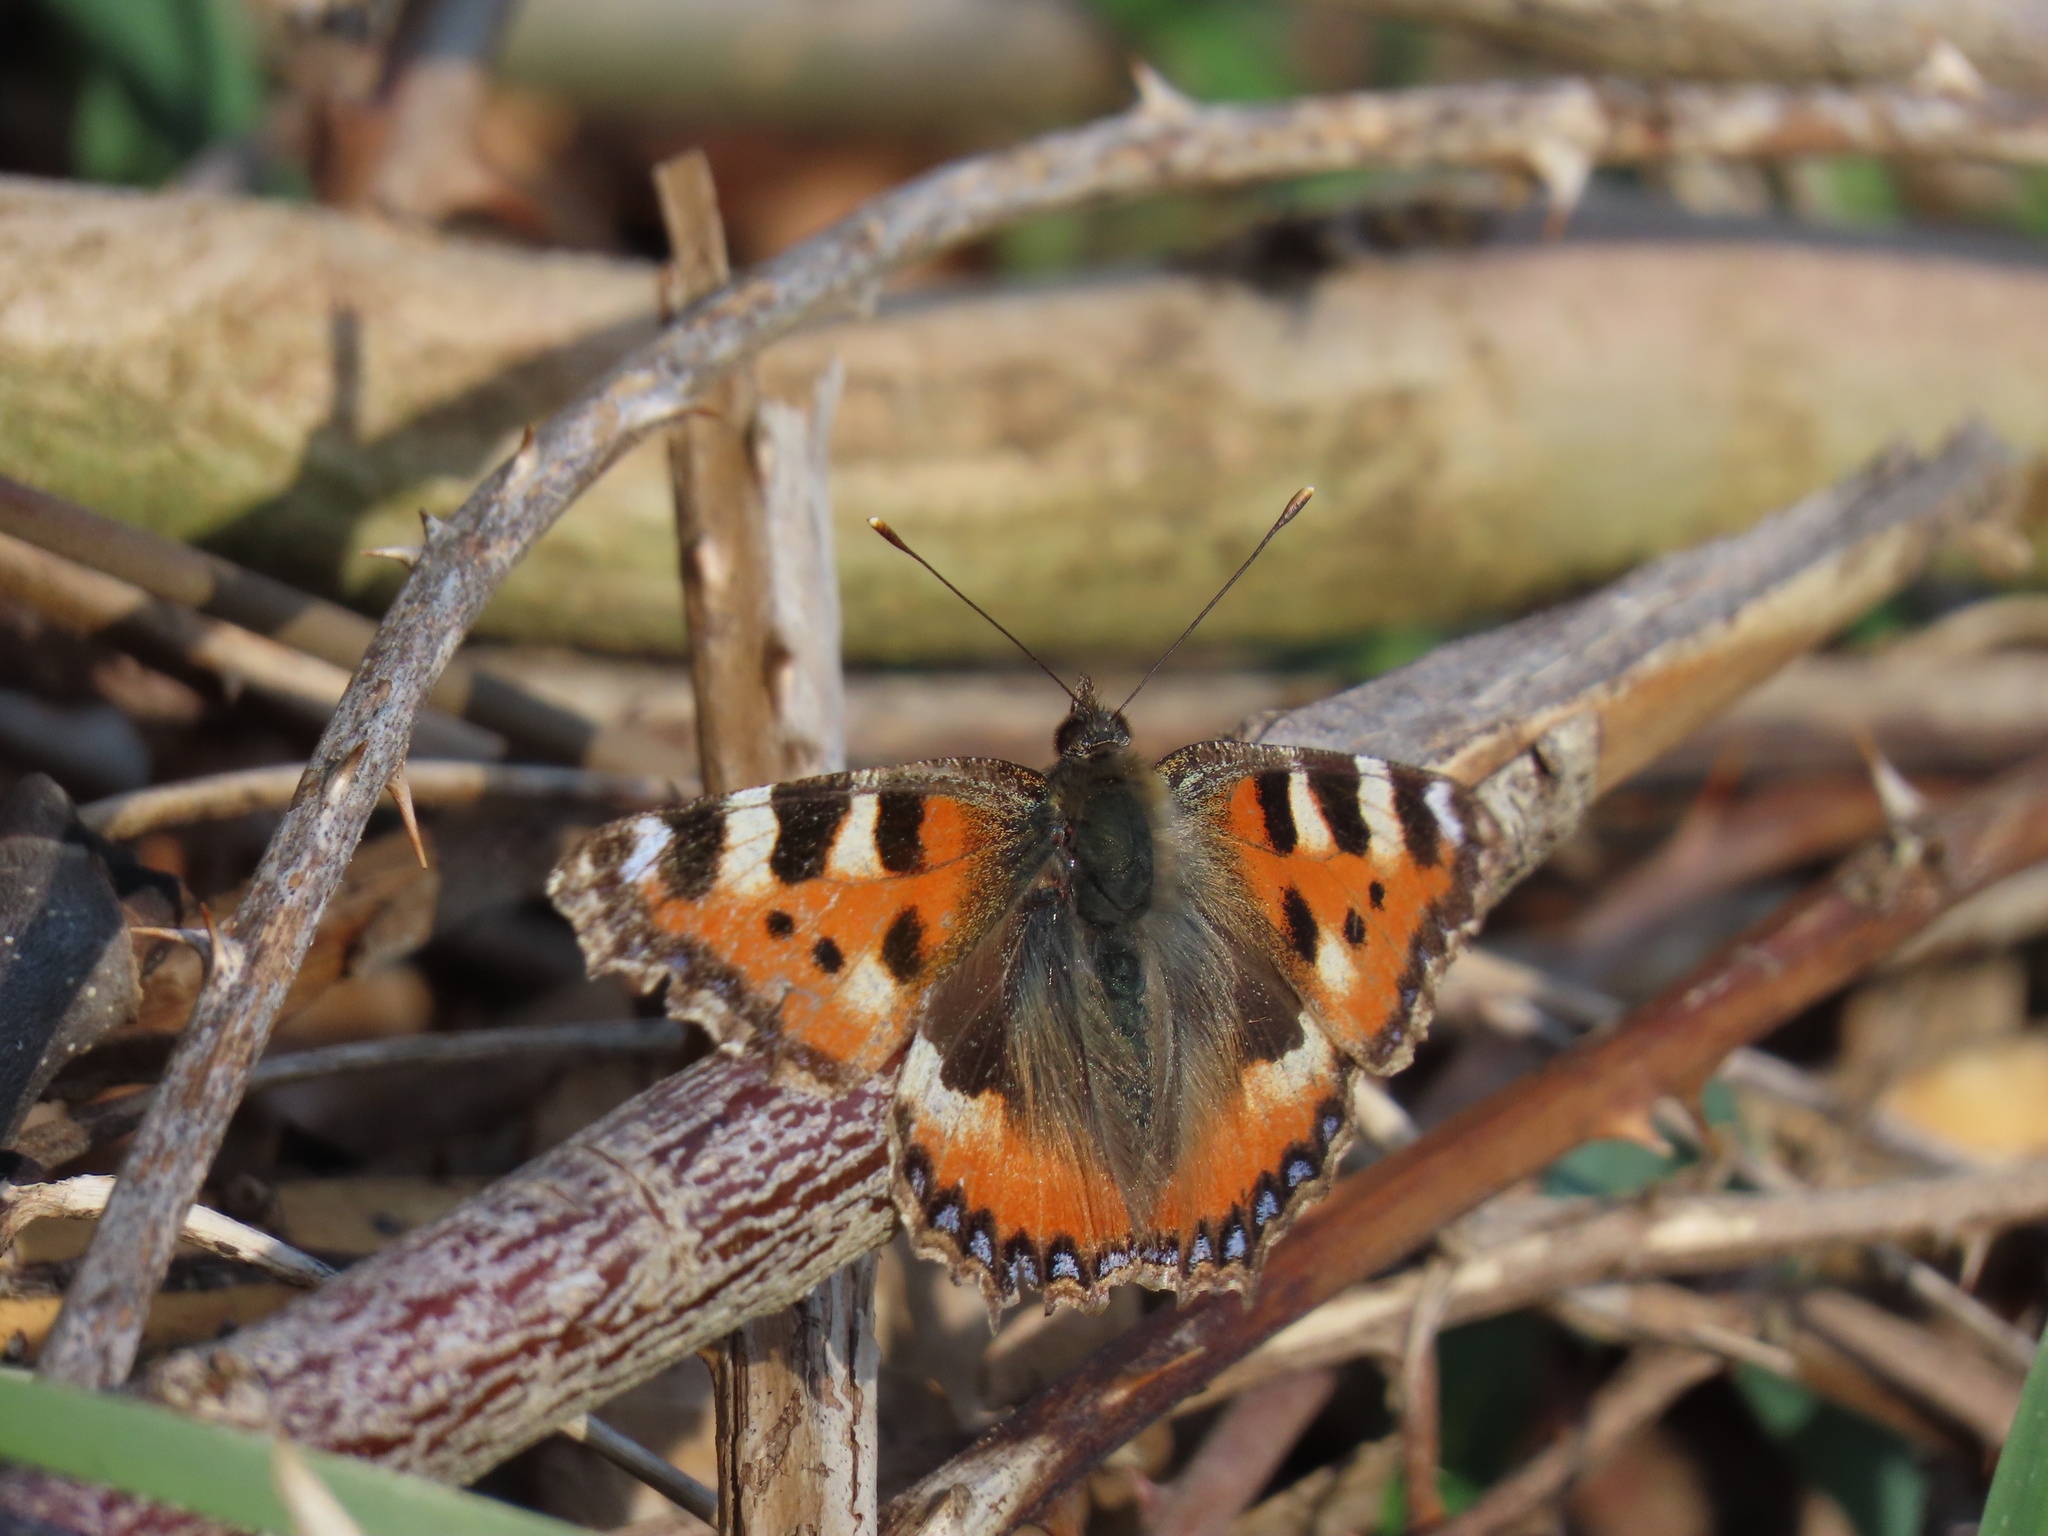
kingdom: Animalia
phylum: Arthropoda
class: Insecta
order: Lepidoptera
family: Nymphalidae
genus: Aglais
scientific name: Aglais urticae
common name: Small tortoiseshell
